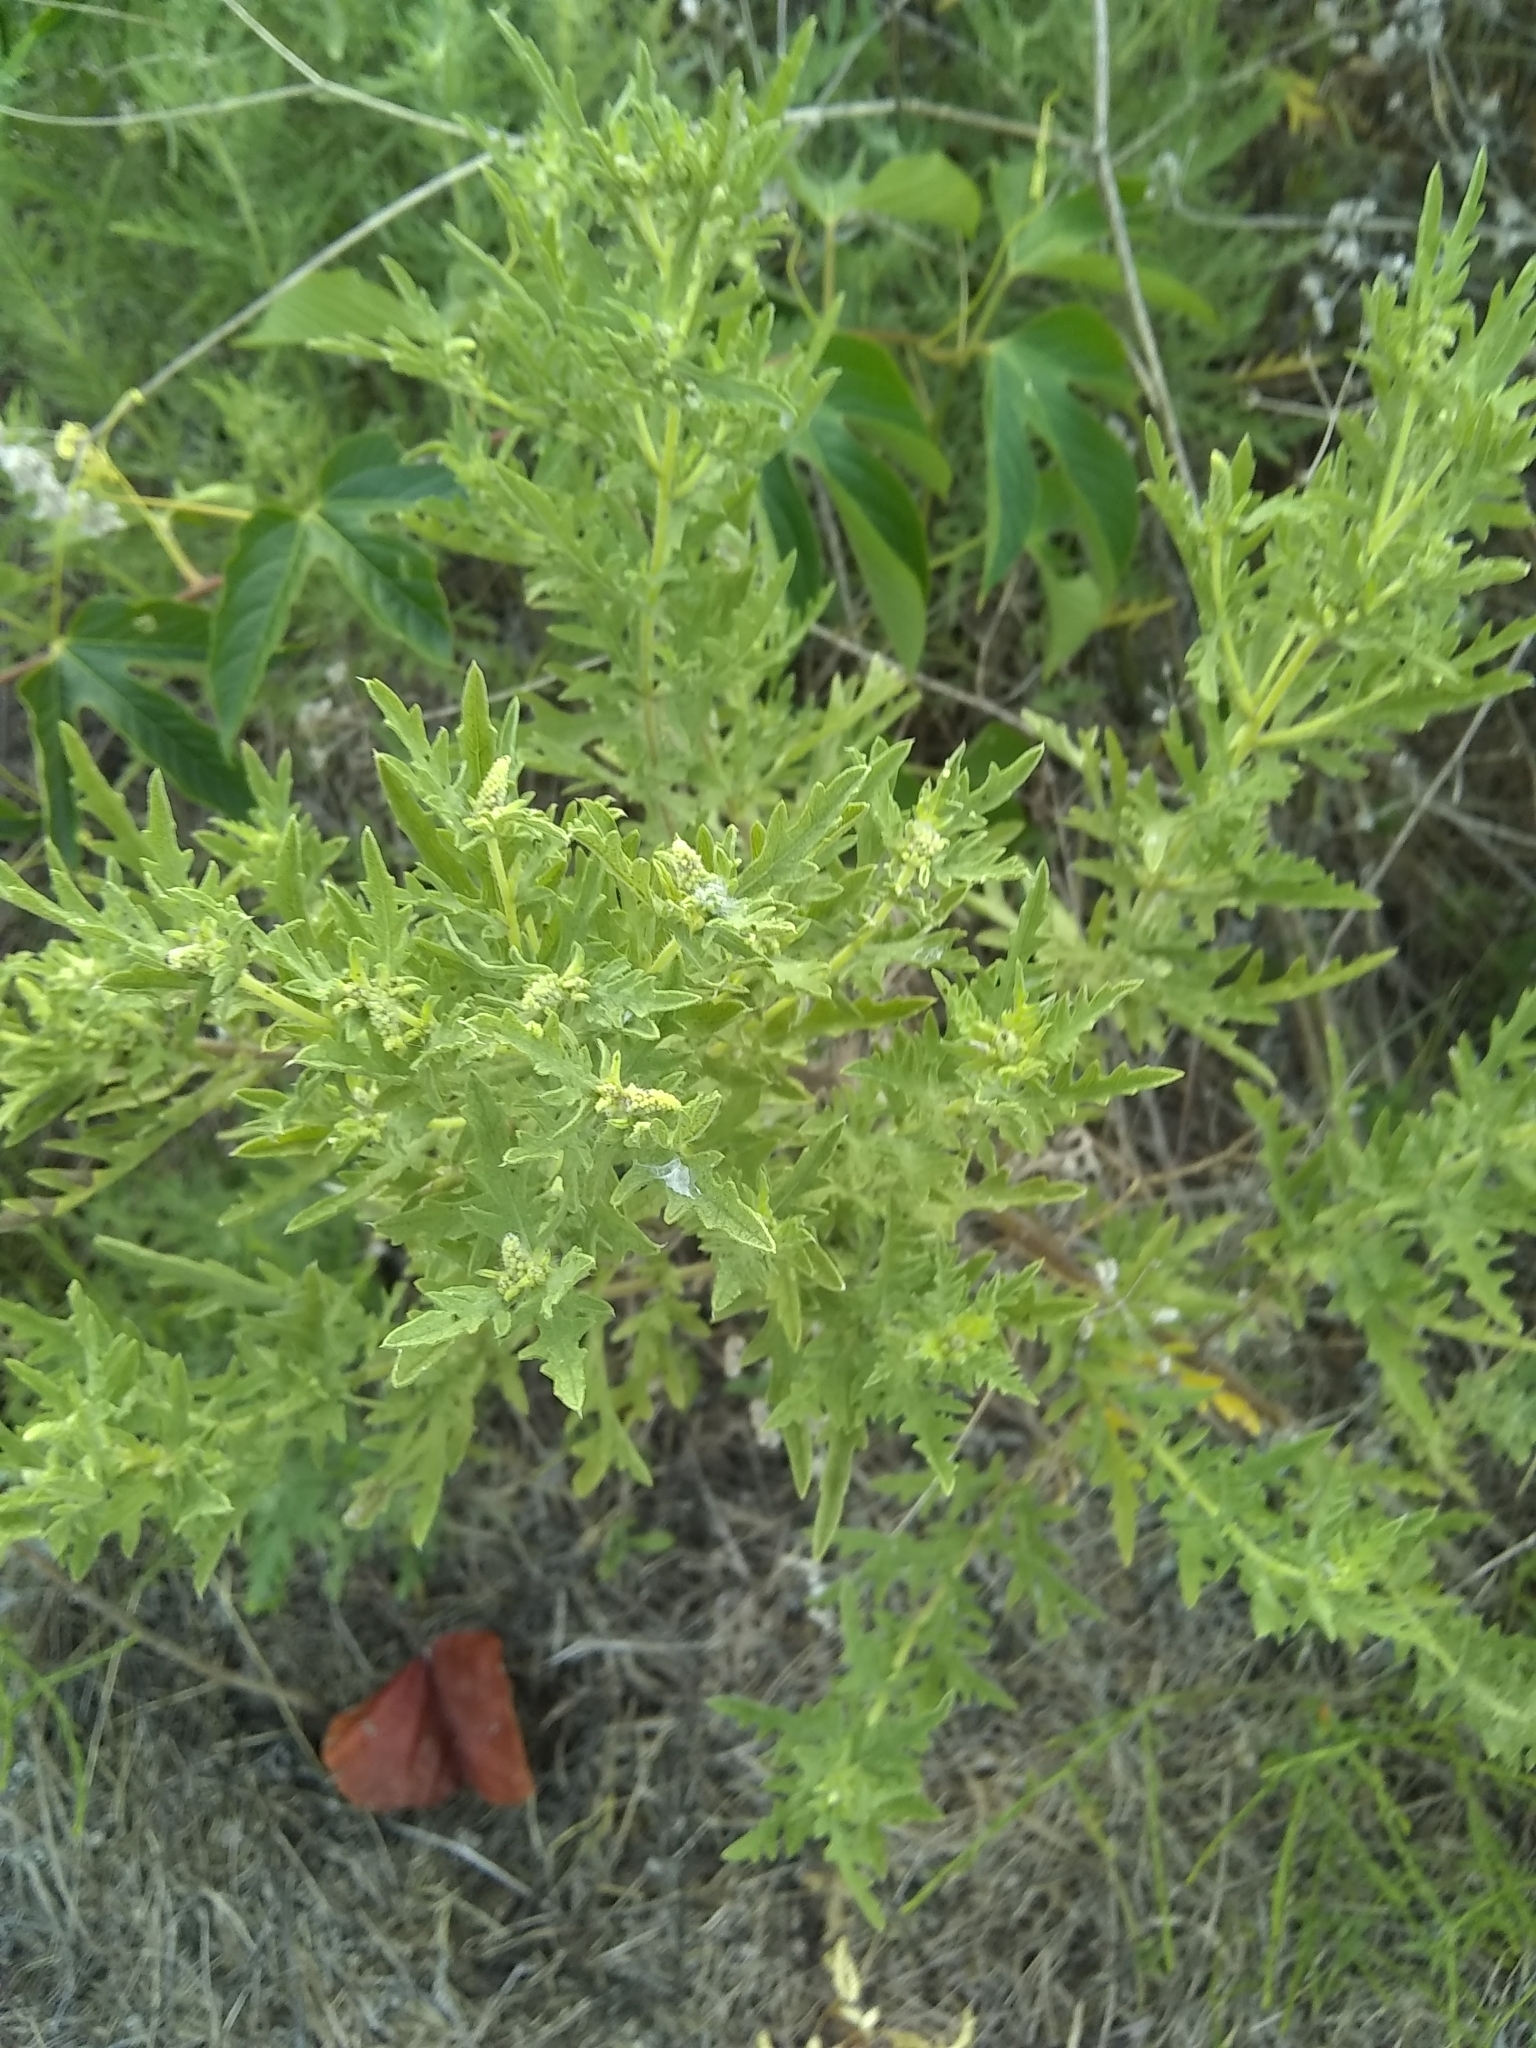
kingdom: Plantae
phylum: Tracheophyta
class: Magnoliopsida
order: Asterales
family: Asteraceae
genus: Ambrosia
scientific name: Ambrosia psilostachya
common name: Perennial ragweed
